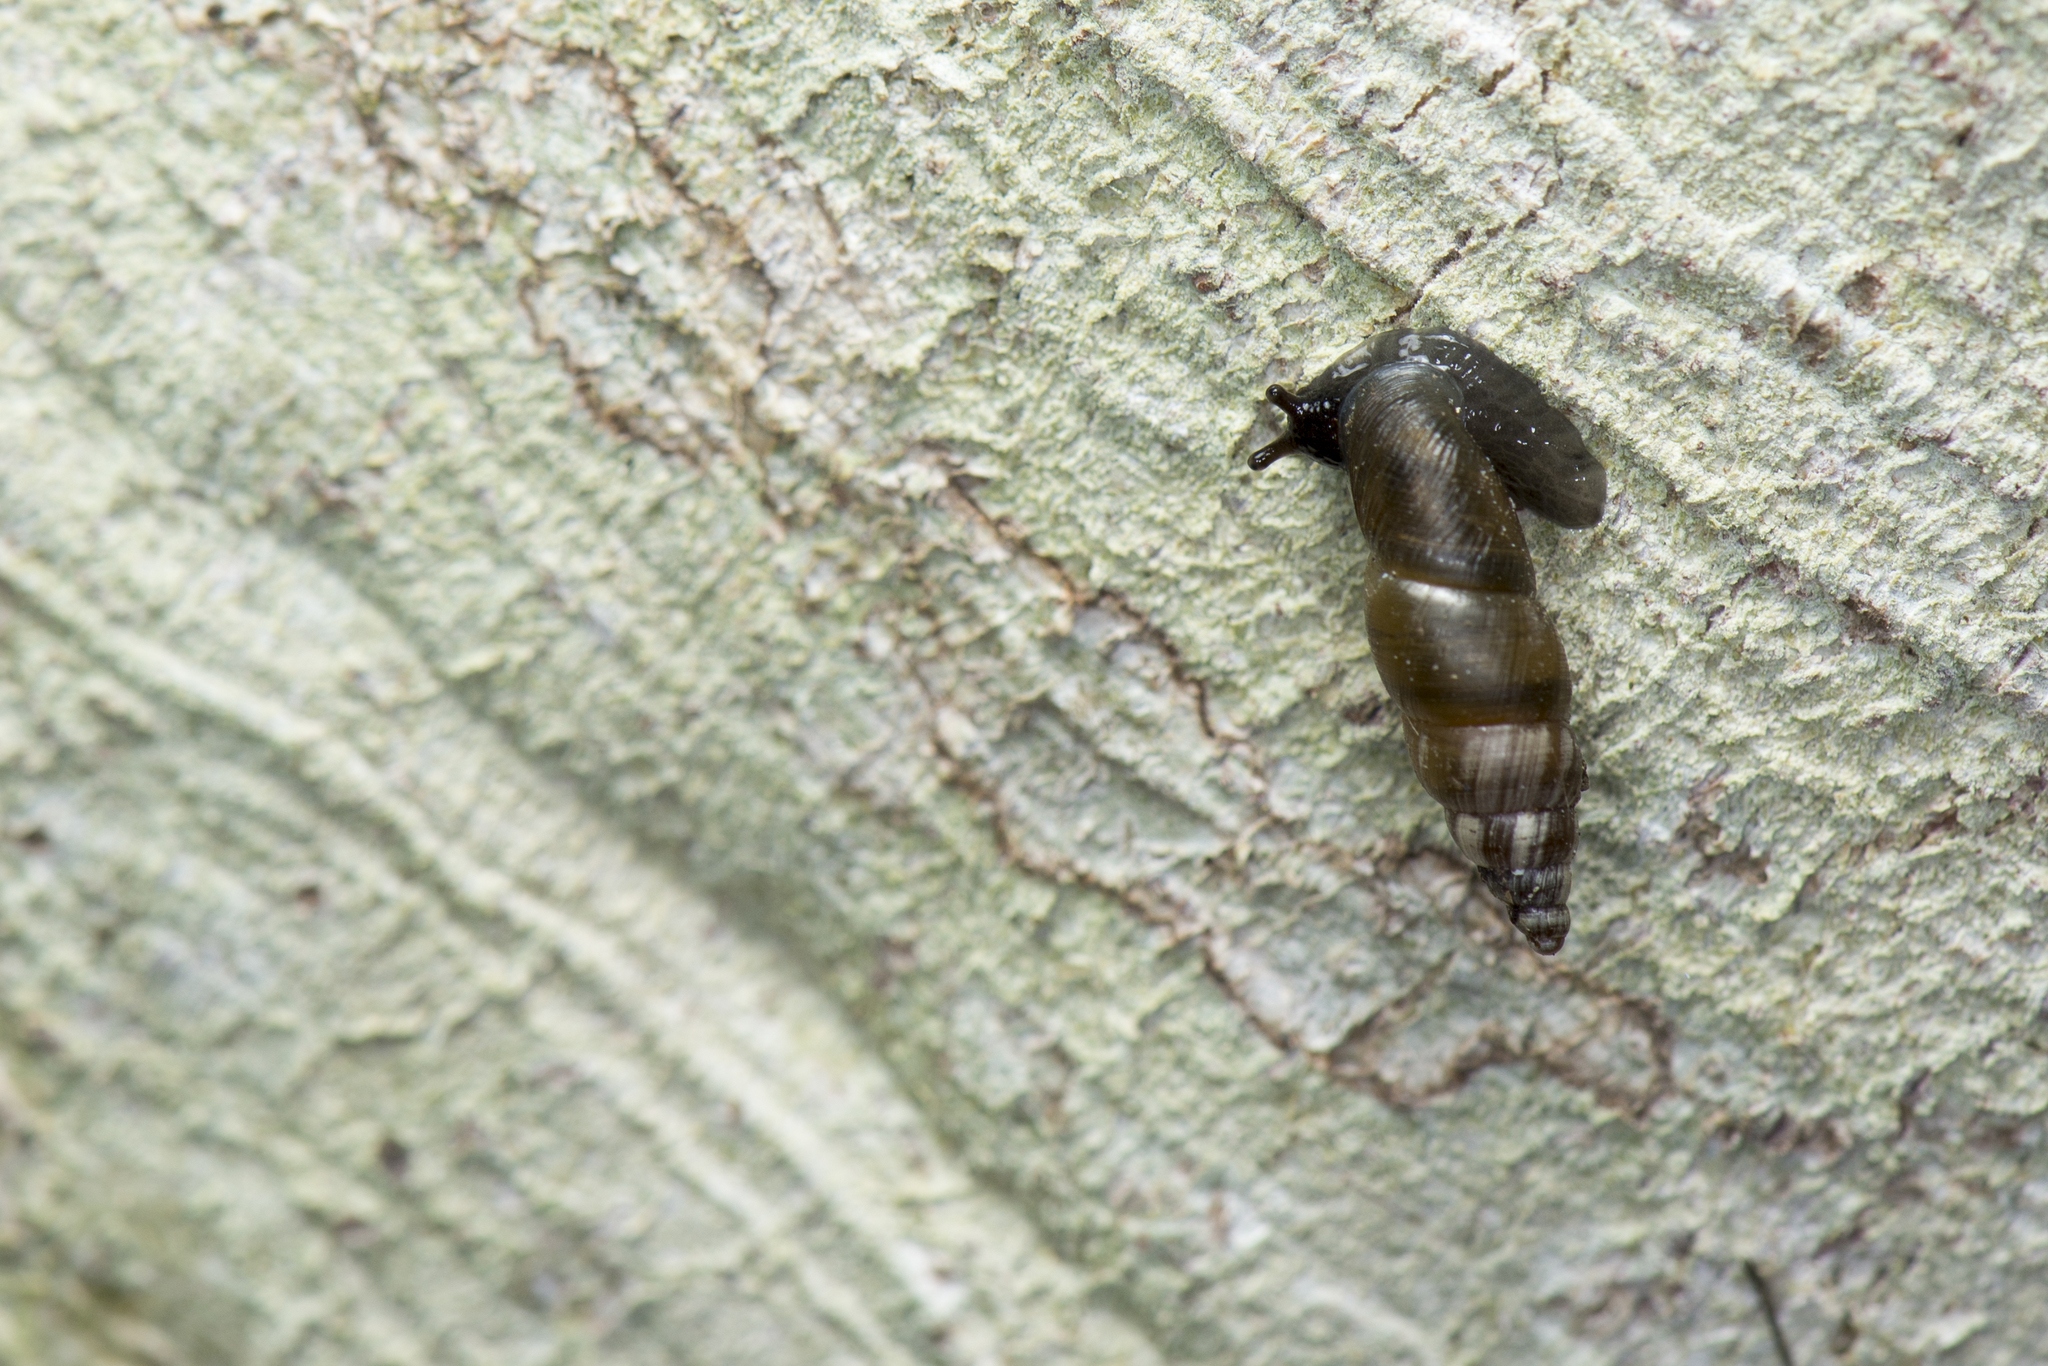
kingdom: Animalia
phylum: Mollusca
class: Gastropoda
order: Stylommatophora
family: Clausiliidae
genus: Reinia
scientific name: Reinia eastlakeana
